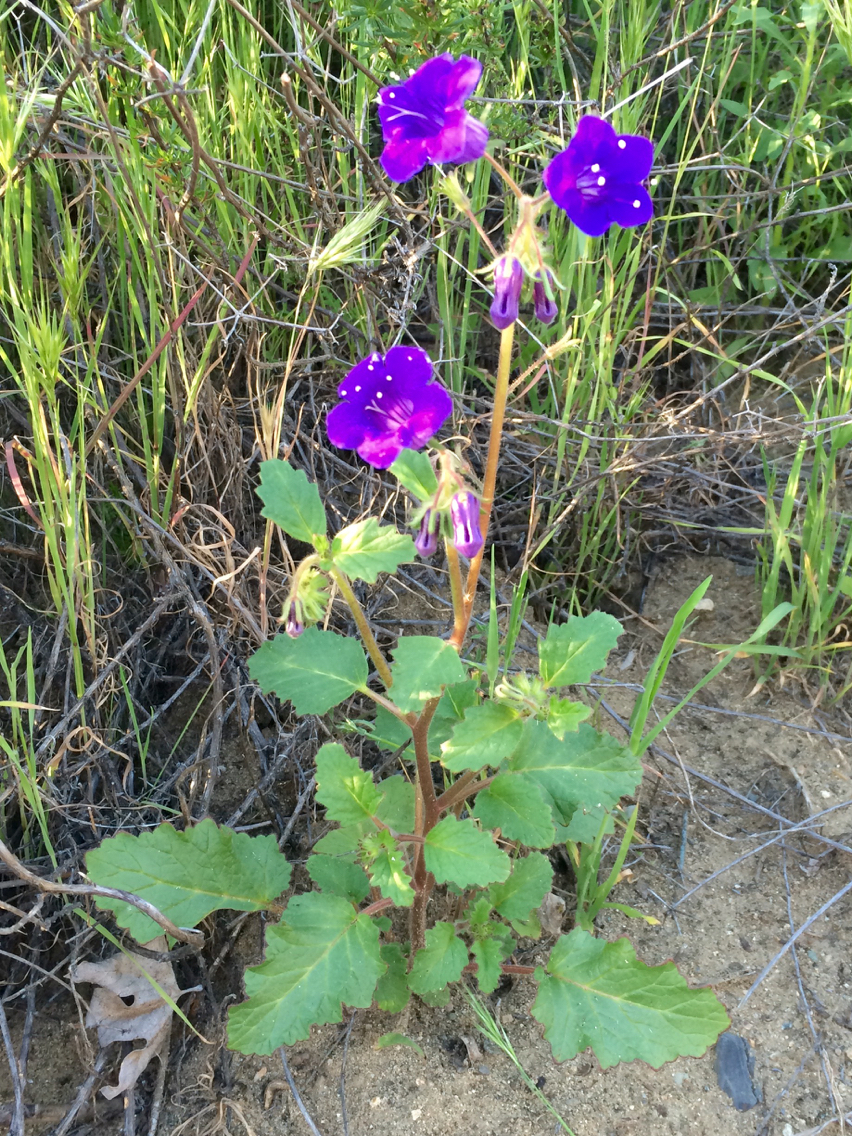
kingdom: Plantae
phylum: Tracheophyta
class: Magnoliopsida
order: Boraginales
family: Hydrophyllaceae
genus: Phacelia
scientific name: Phacelia minor
